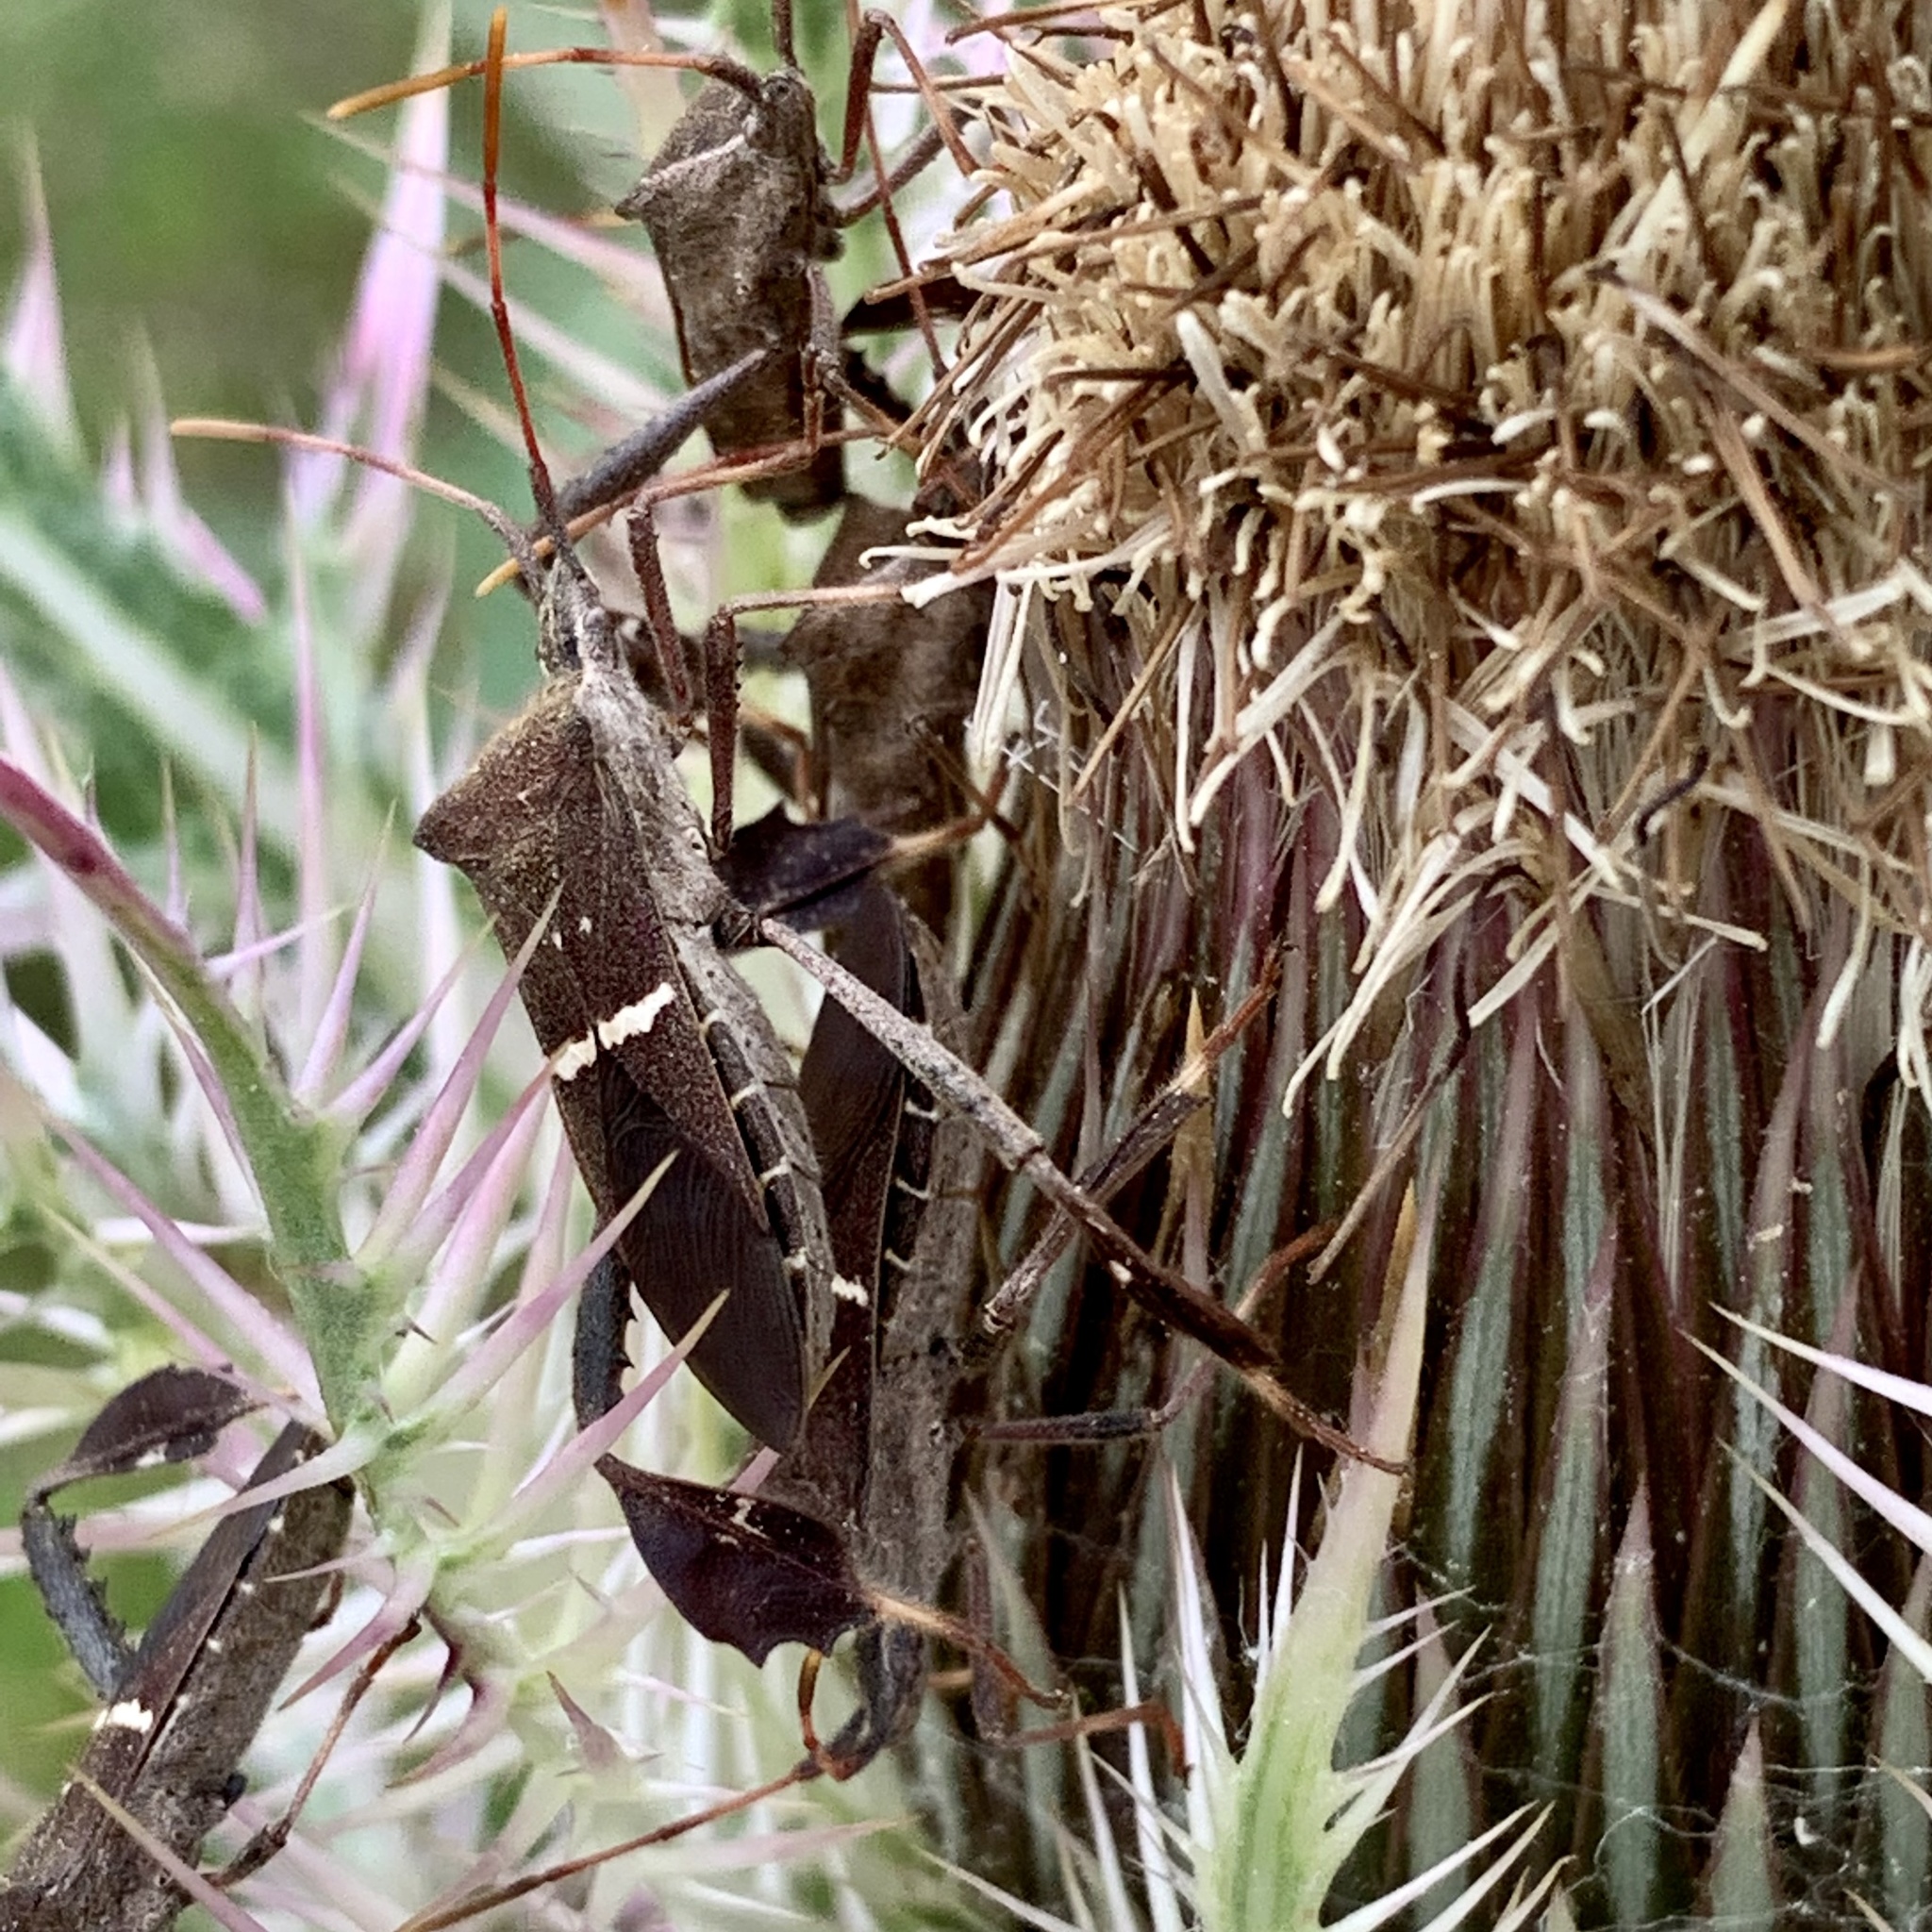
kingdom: Animalia
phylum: Arthropoda
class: Insecta
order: Hemiptera
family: Coreidae
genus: Leptoglossus
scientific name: Leptoglossus phyllopus
